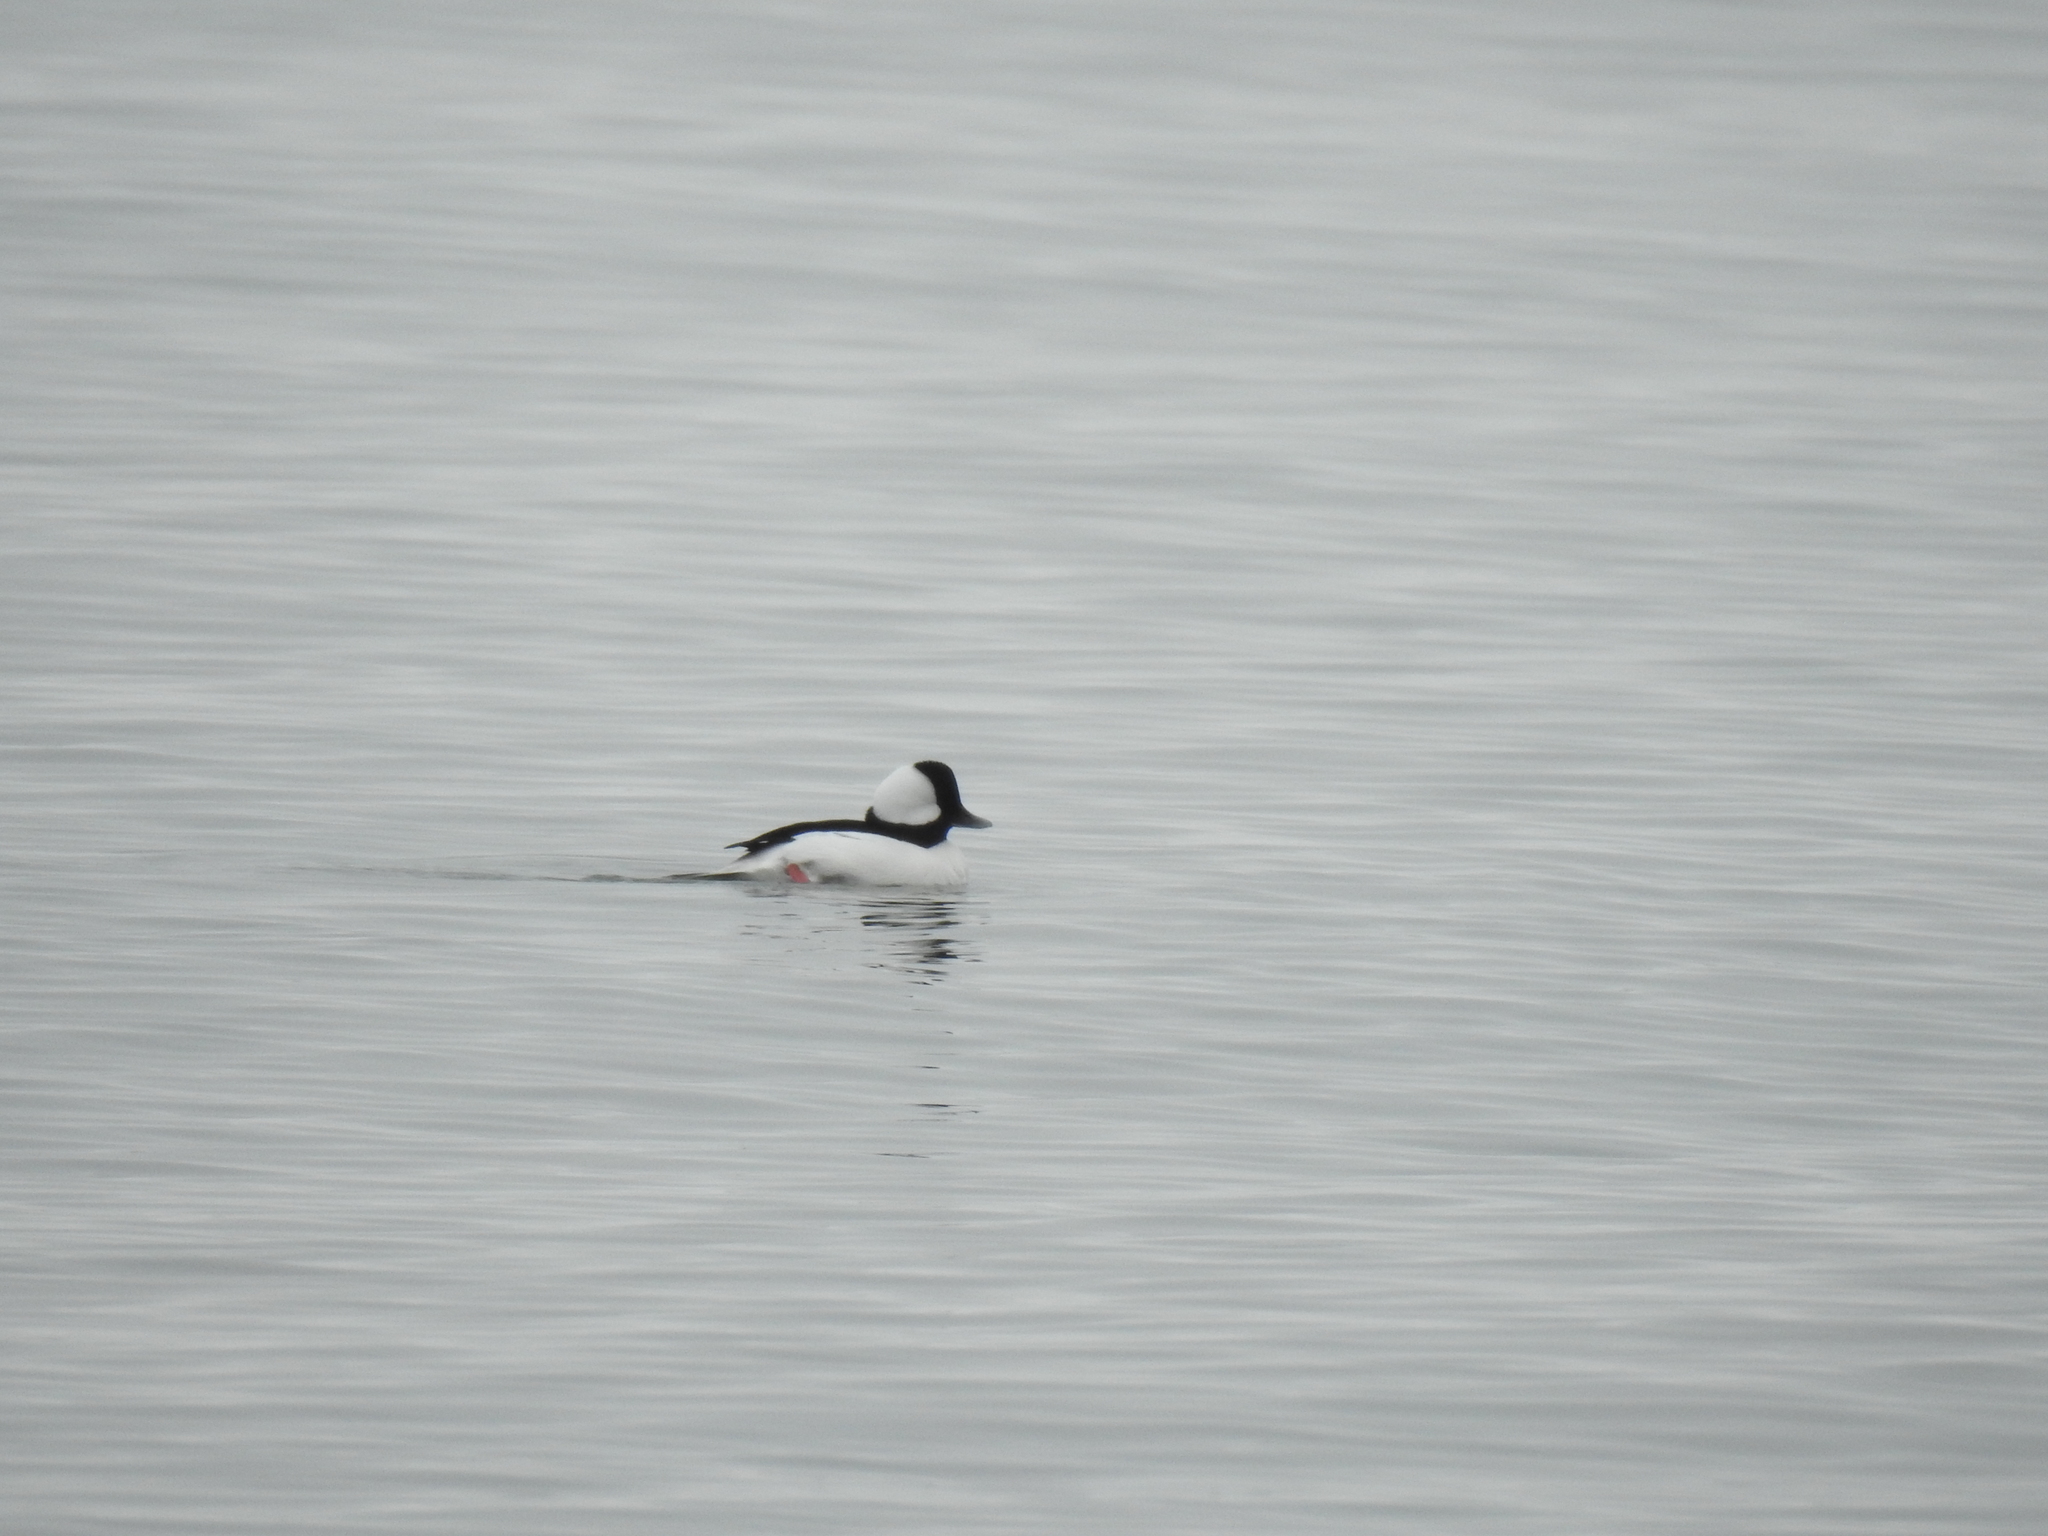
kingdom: Animalia
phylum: Chordata
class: Aves
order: Anseriformes
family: Anatidae
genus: Bucephala
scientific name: Bucephala albeola
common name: Bufflehead
